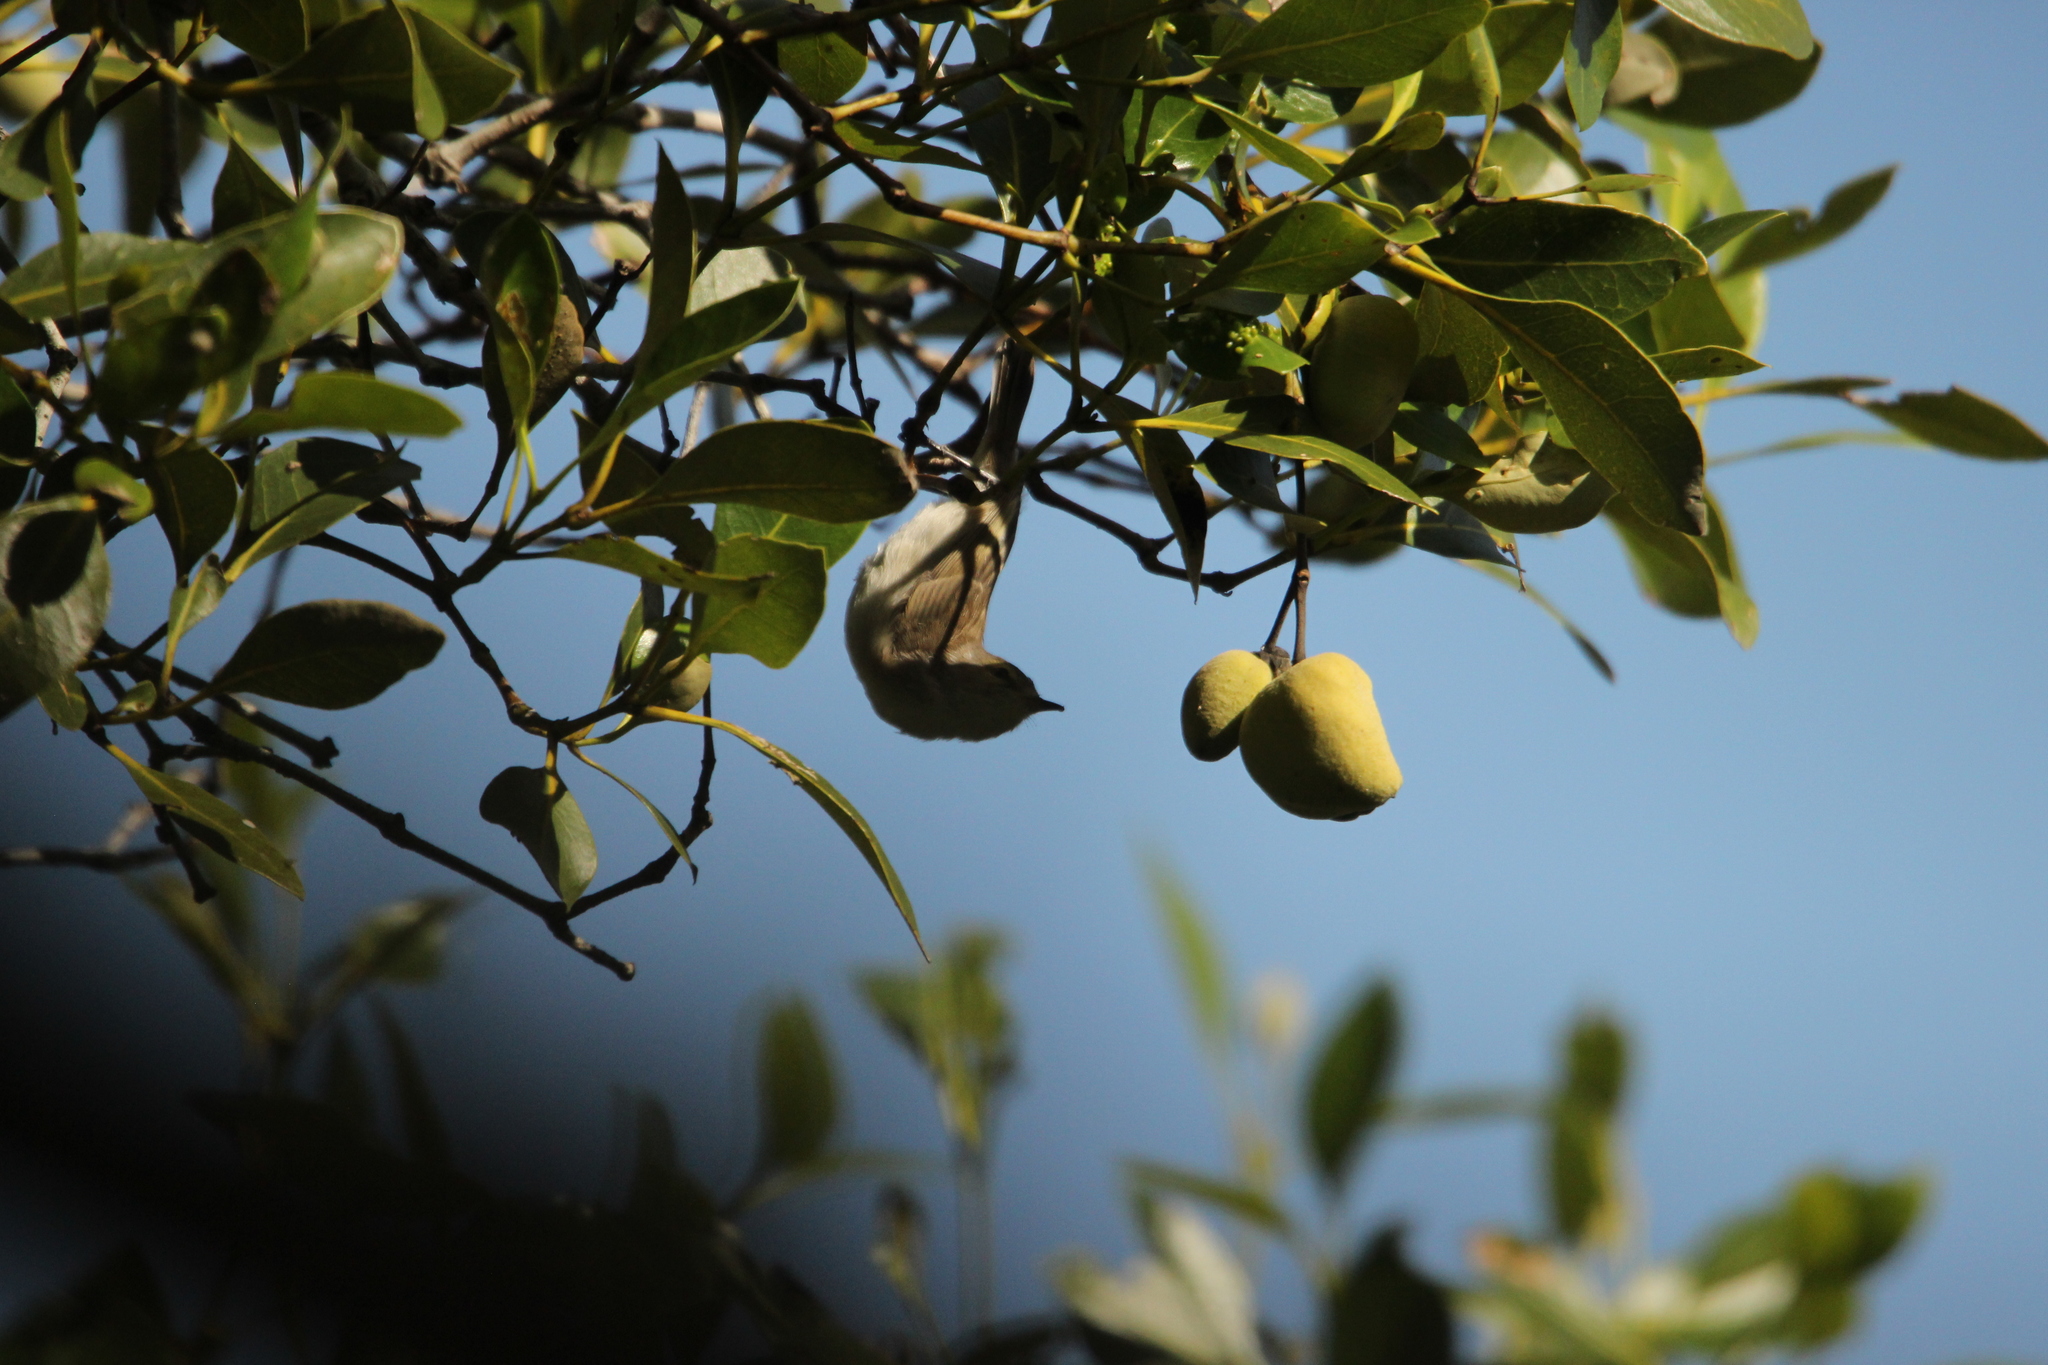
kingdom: Animalia
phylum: Chordata
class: Aves
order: Passeriformes
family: Acanthizidae
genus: Gerygone
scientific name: Gerygone levigaster
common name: Mangrove gerygone
